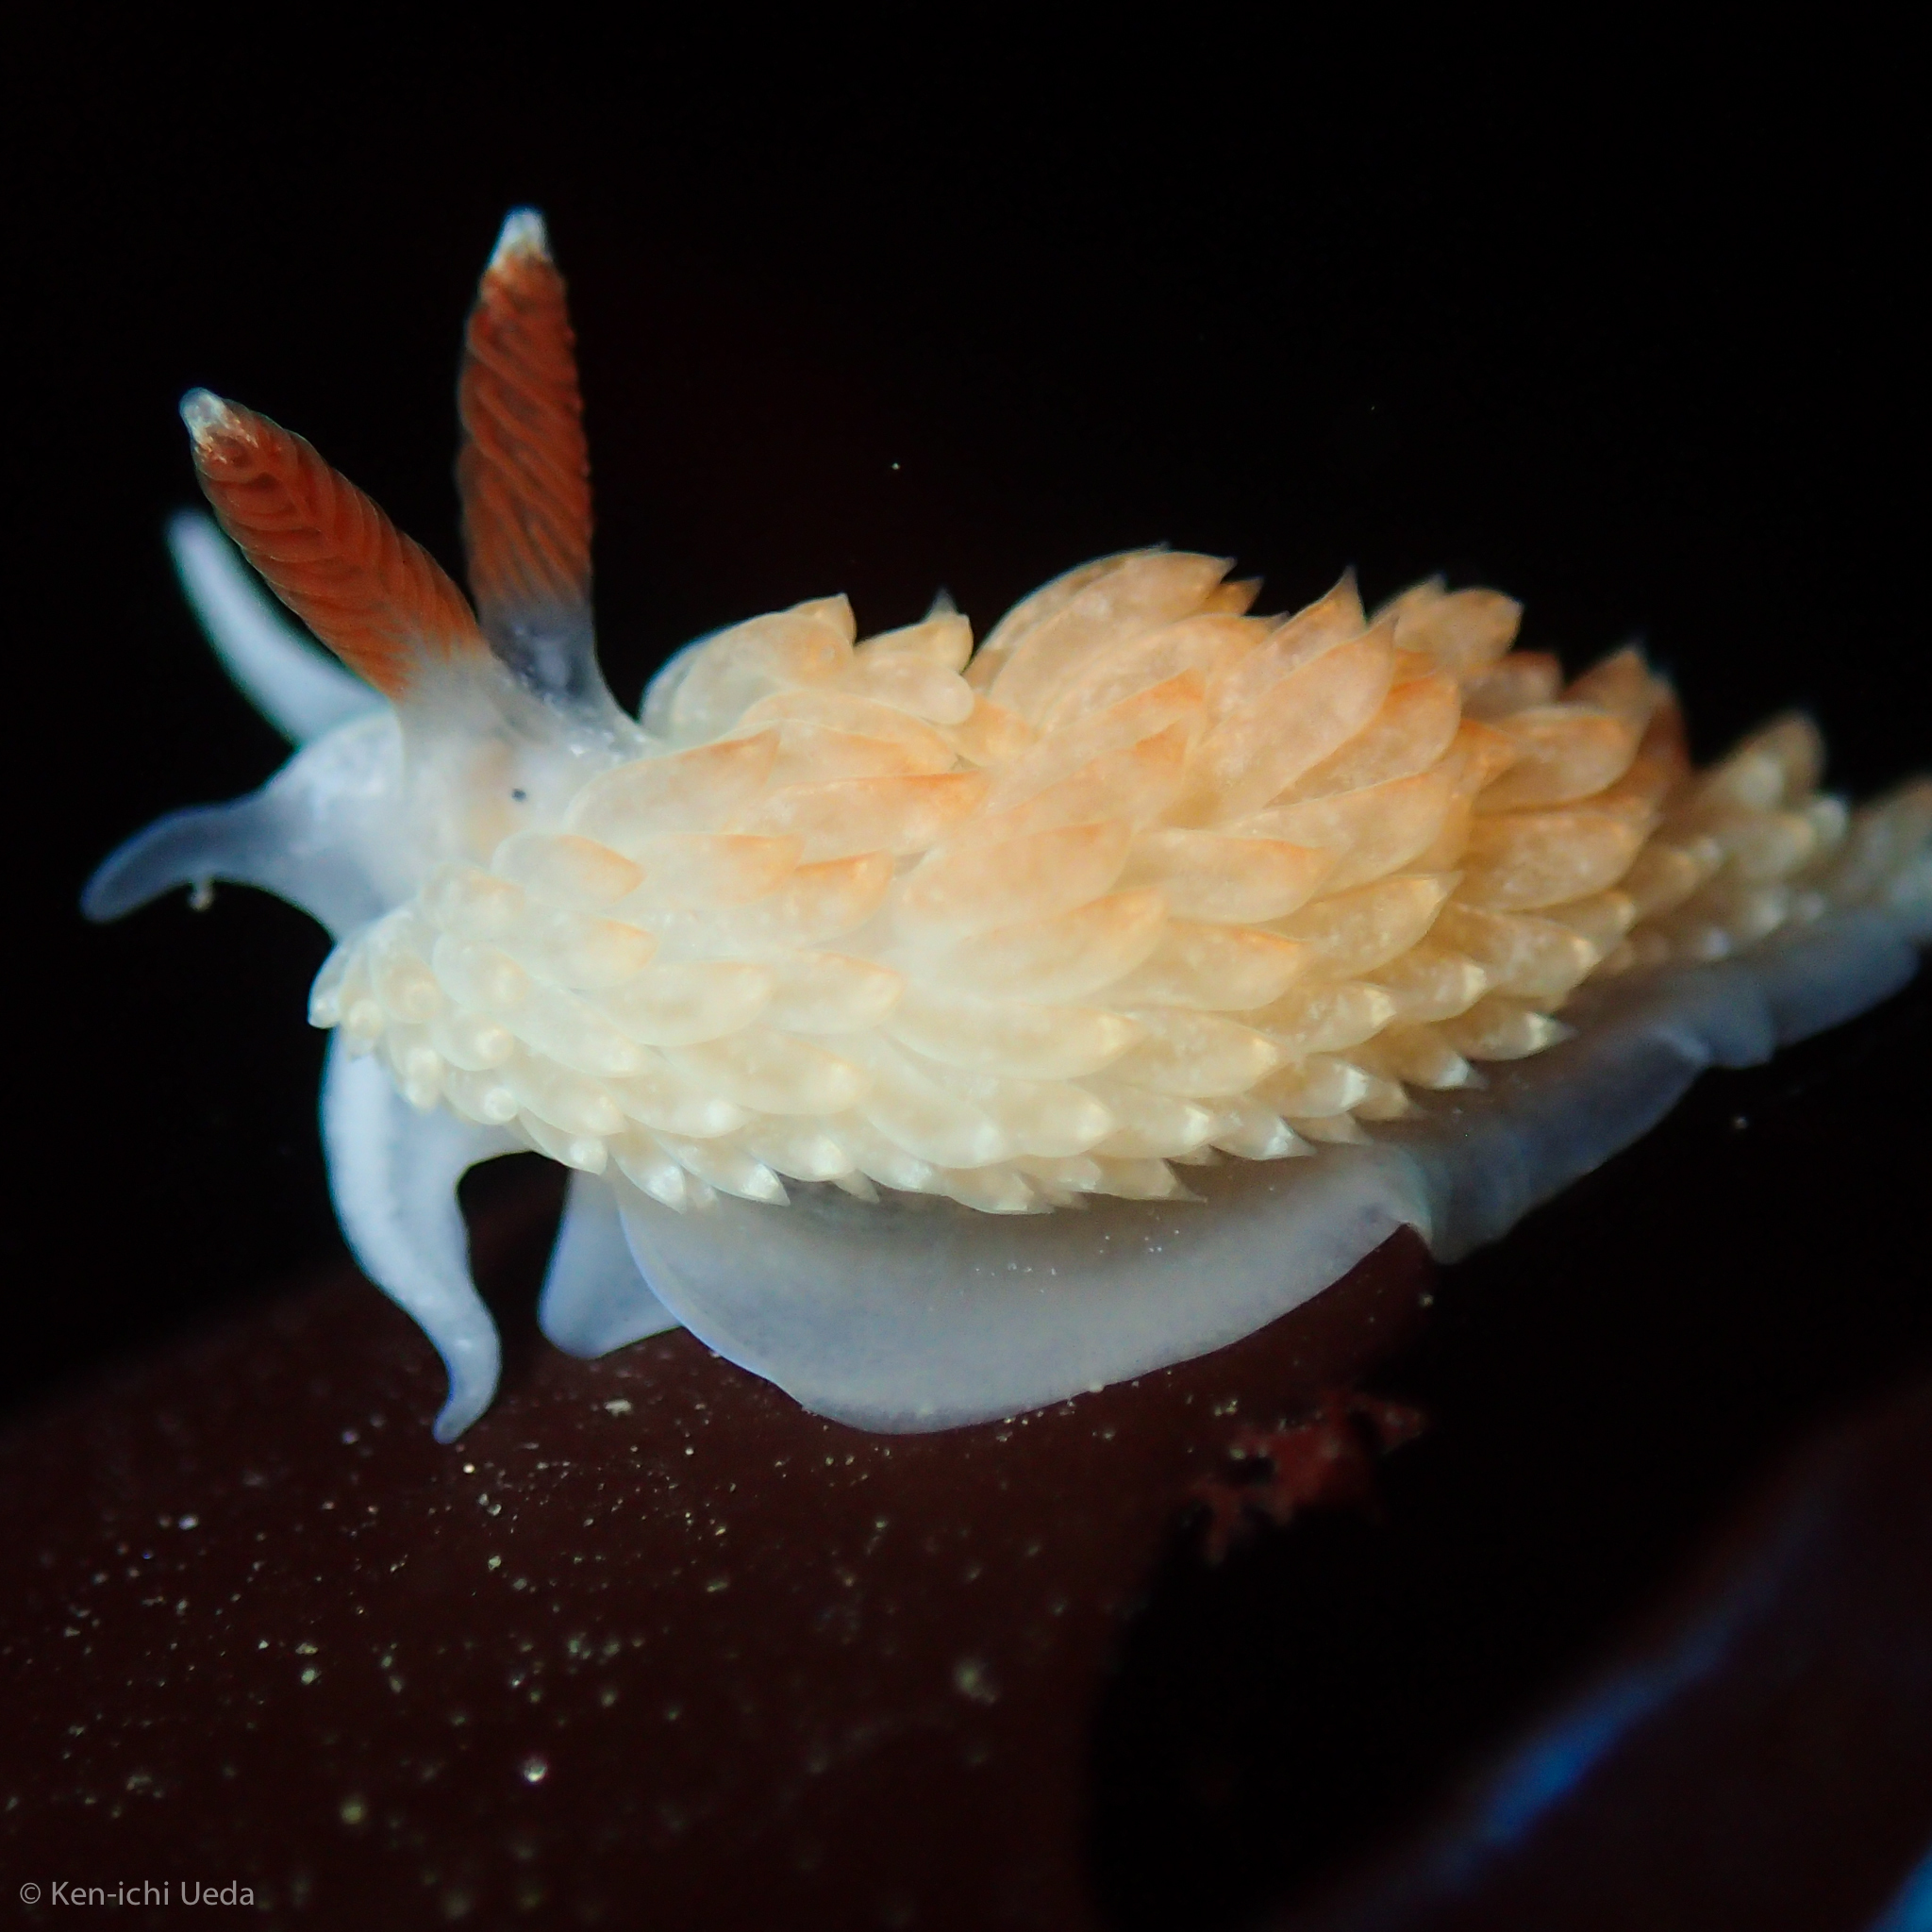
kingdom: Animalia
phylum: Mollusca
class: Gastropoda
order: Nudibranchia
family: Aeolidiidae
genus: Anteaeolidiella
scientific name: Anteaeolidiella oliviae
